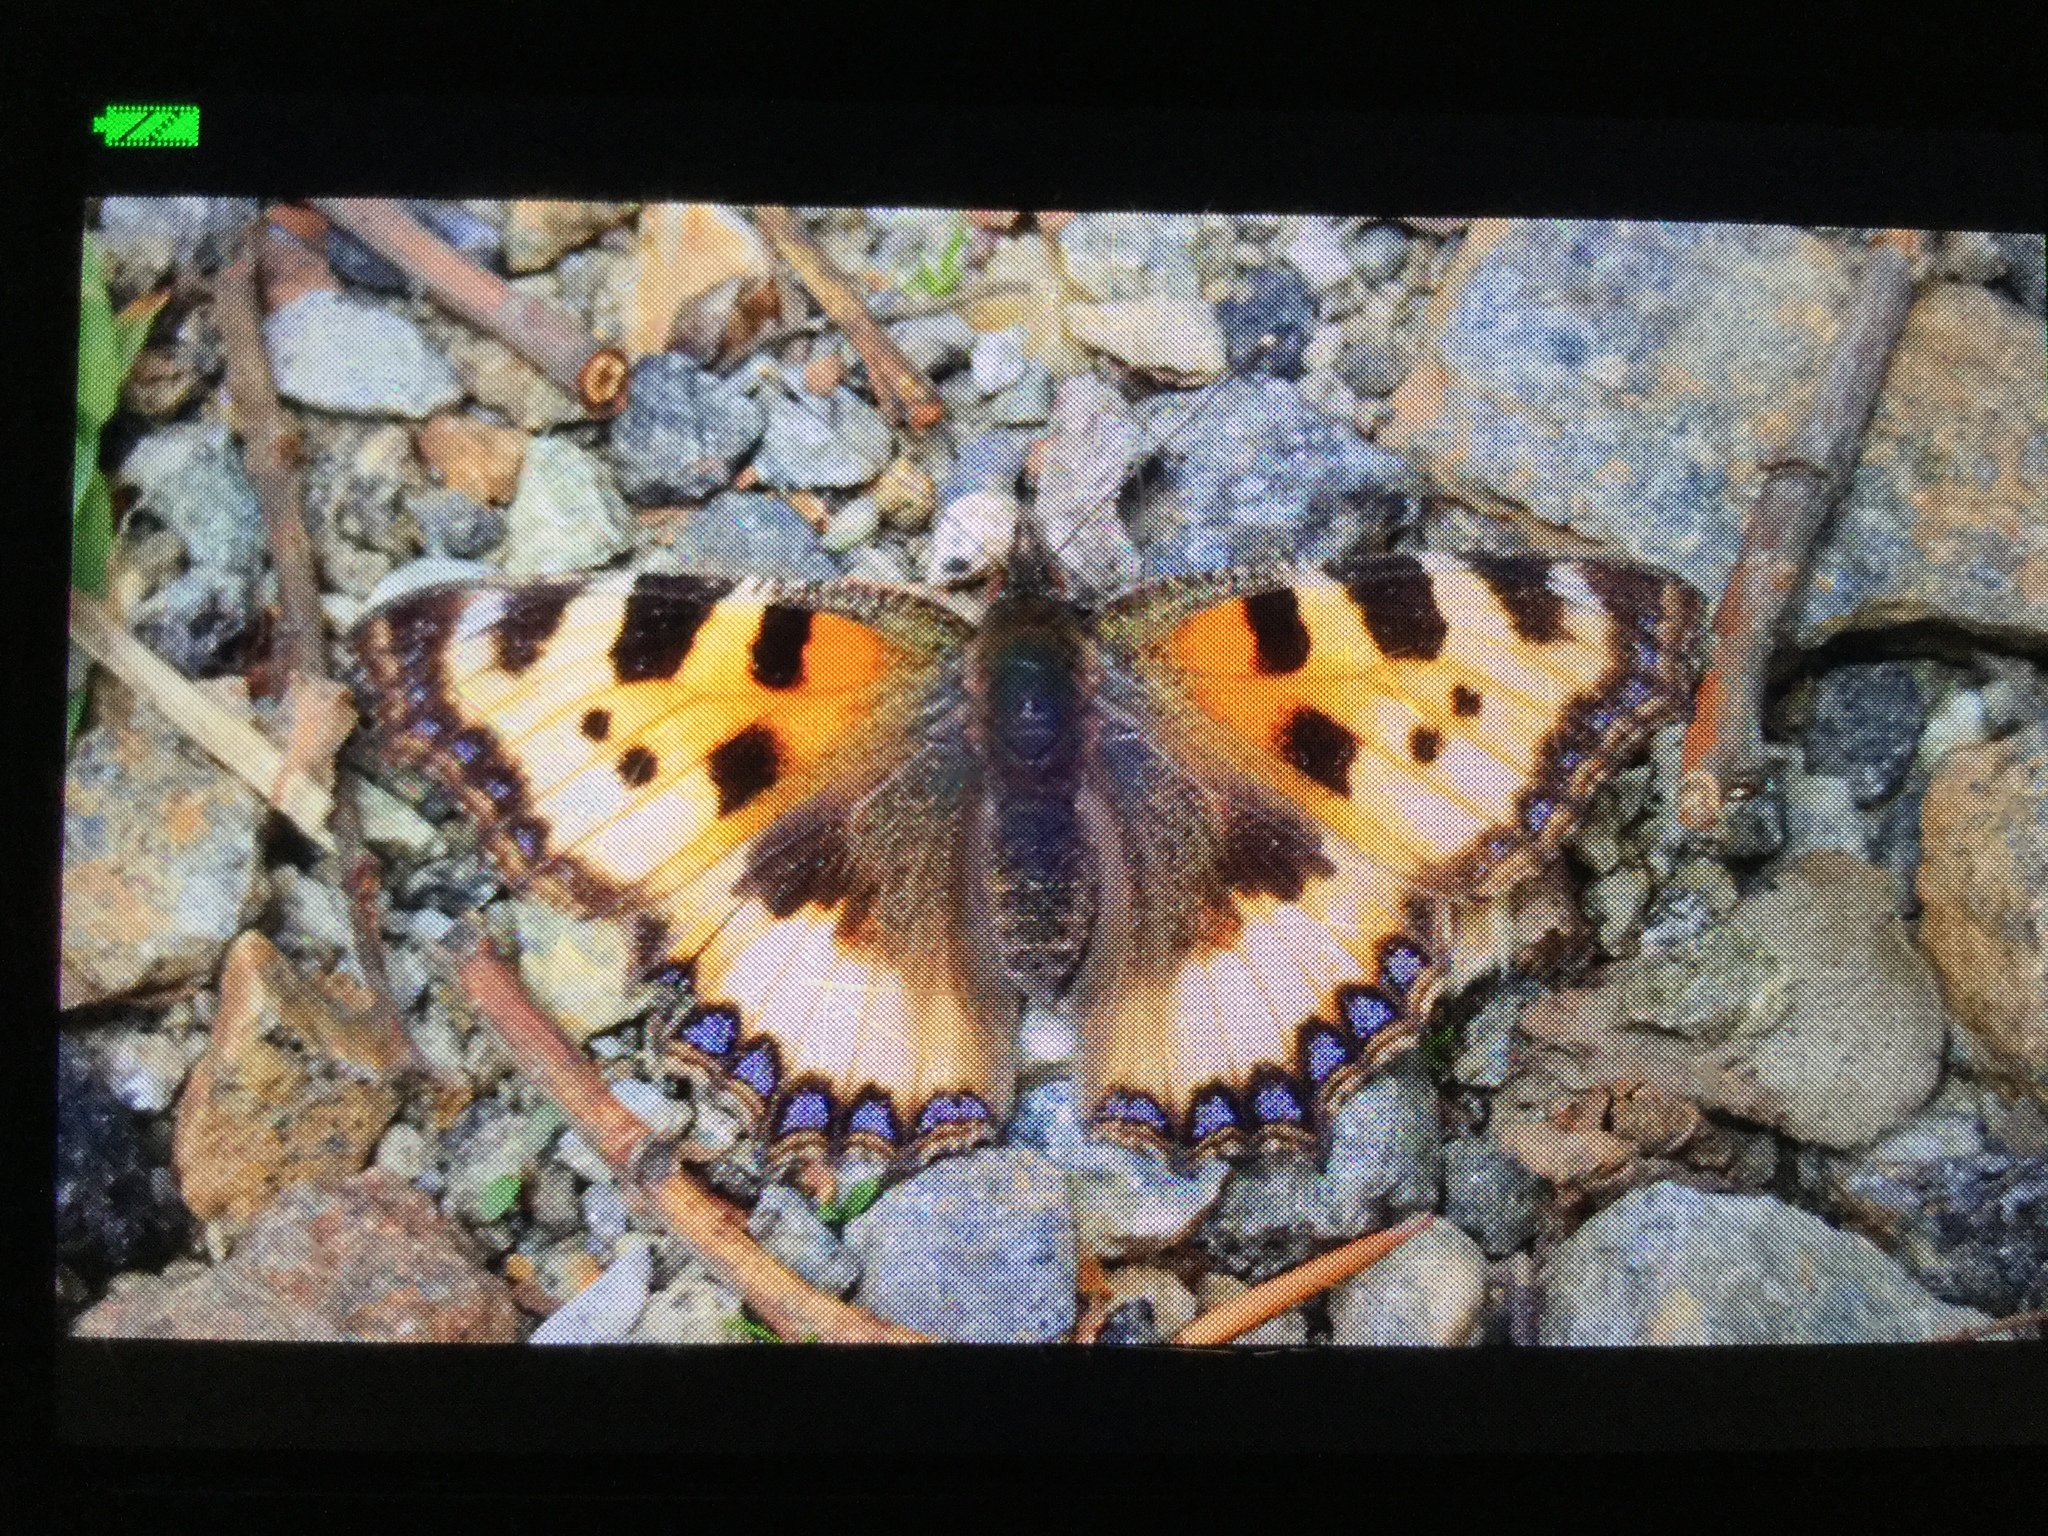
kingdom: Animalia
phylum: Arthropoda
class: Insecta
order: Lepidoptera
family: Nymphalidae
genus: Aglais
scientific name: Aglais urticae
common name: Small tortoiseshell
